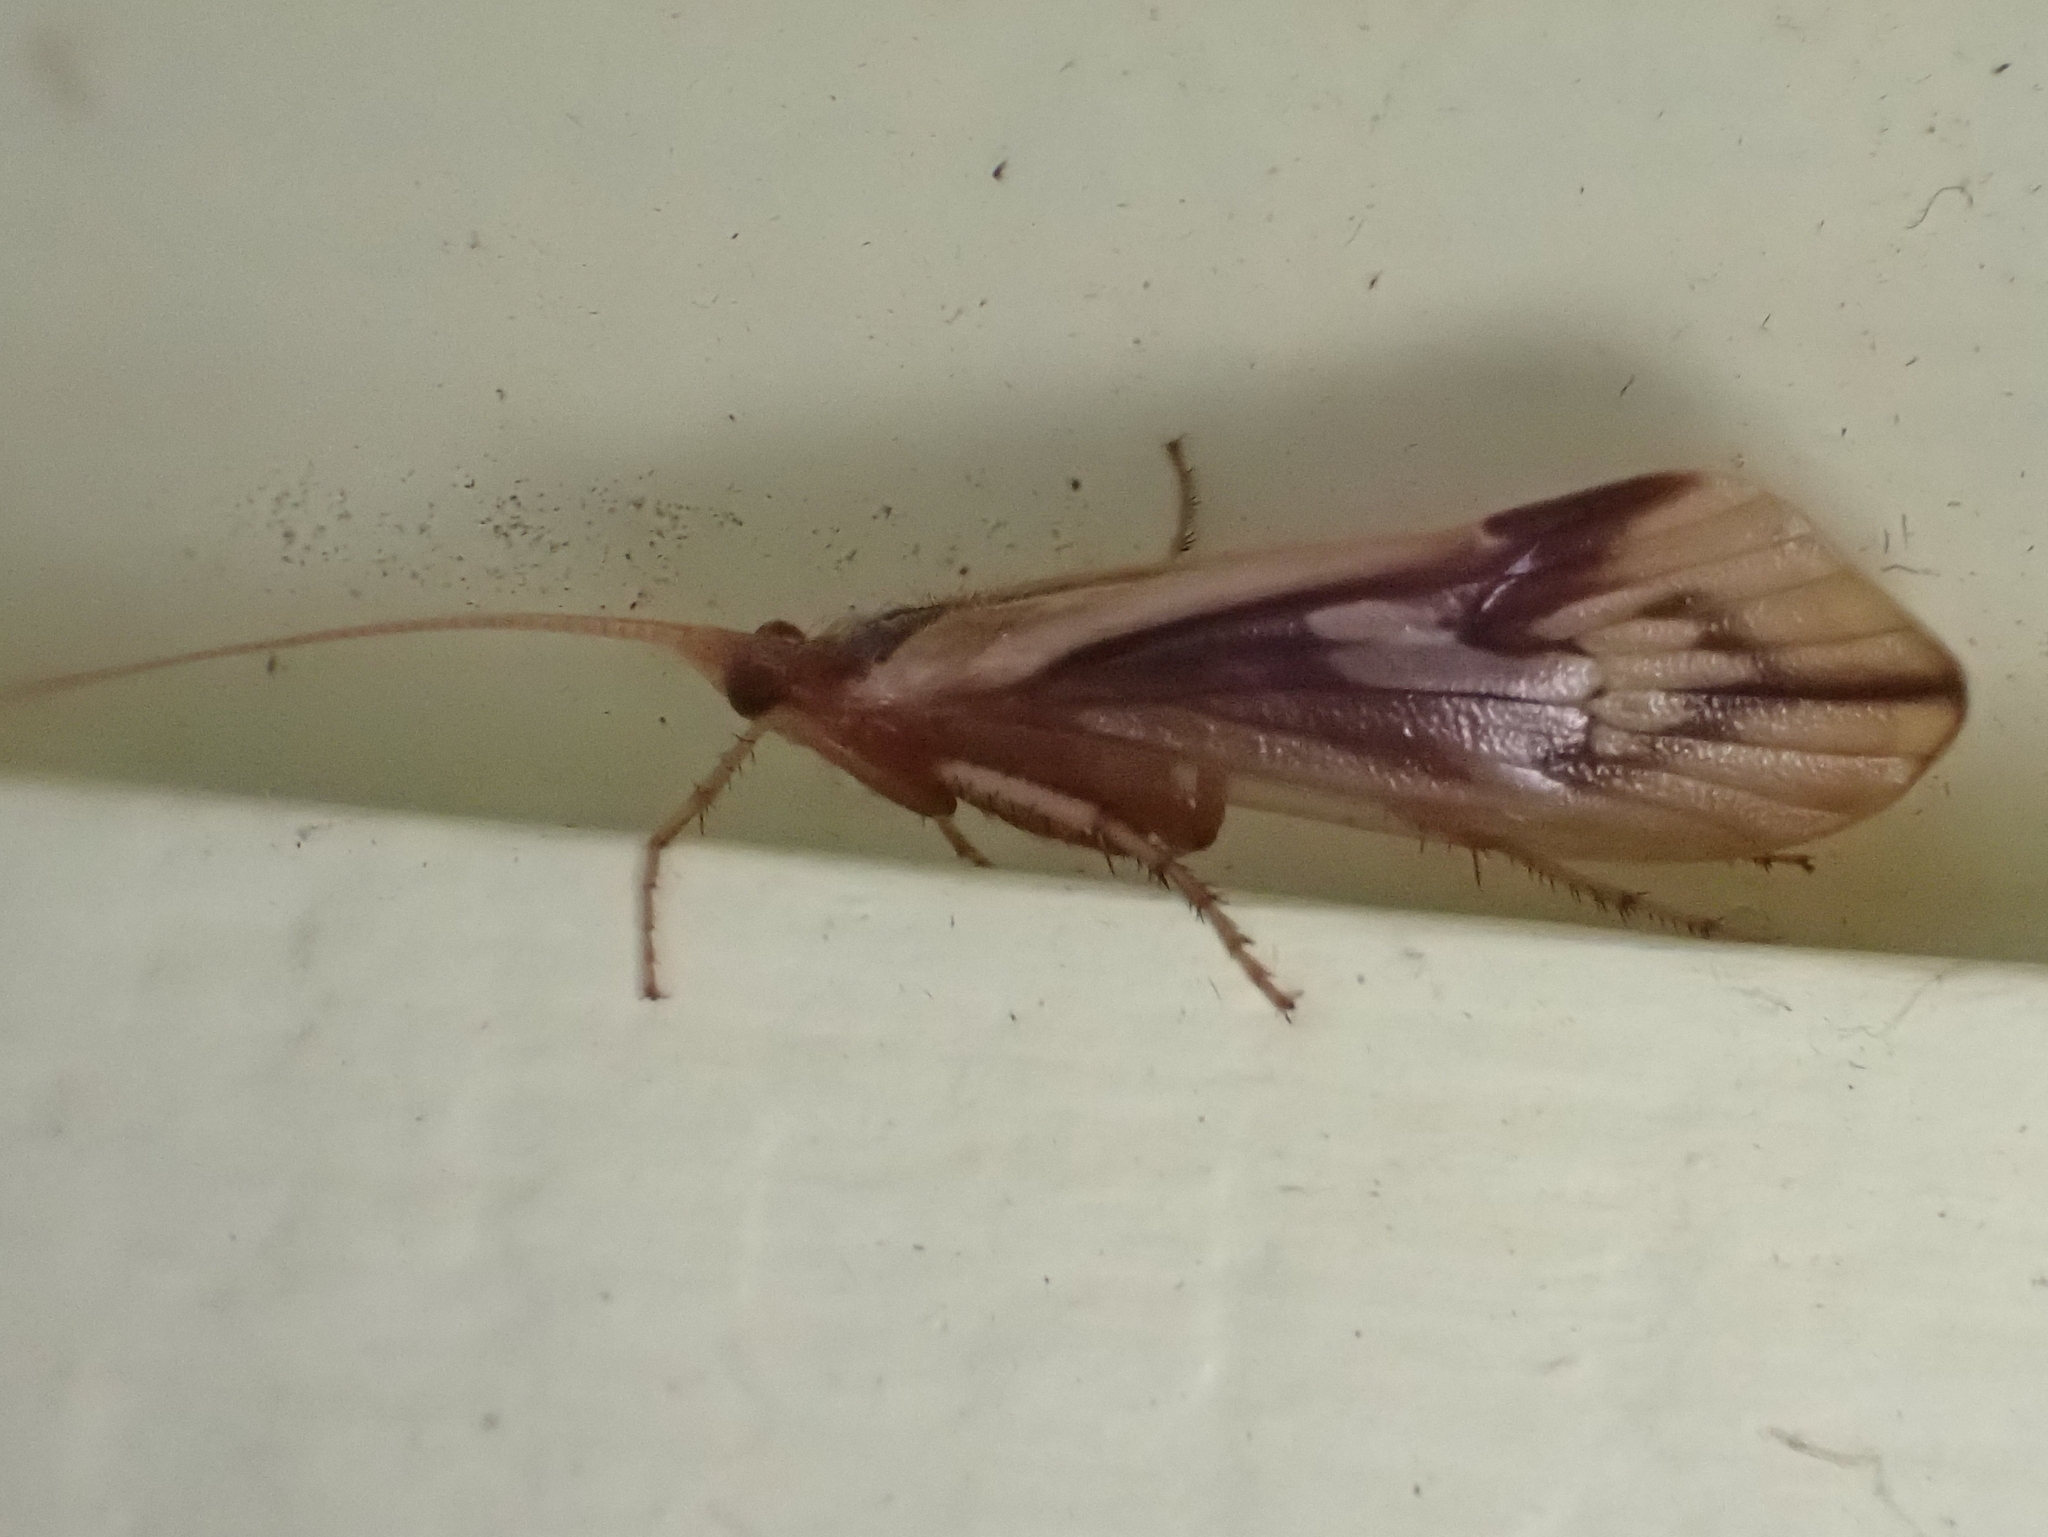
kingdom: Animalia
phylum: Arthropoda
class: Insecta
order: Trichoptera
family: Limnephilidae
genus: Platycentropus
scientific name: Platycentropus radiatus
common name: Chocolate-and-cream sedge
